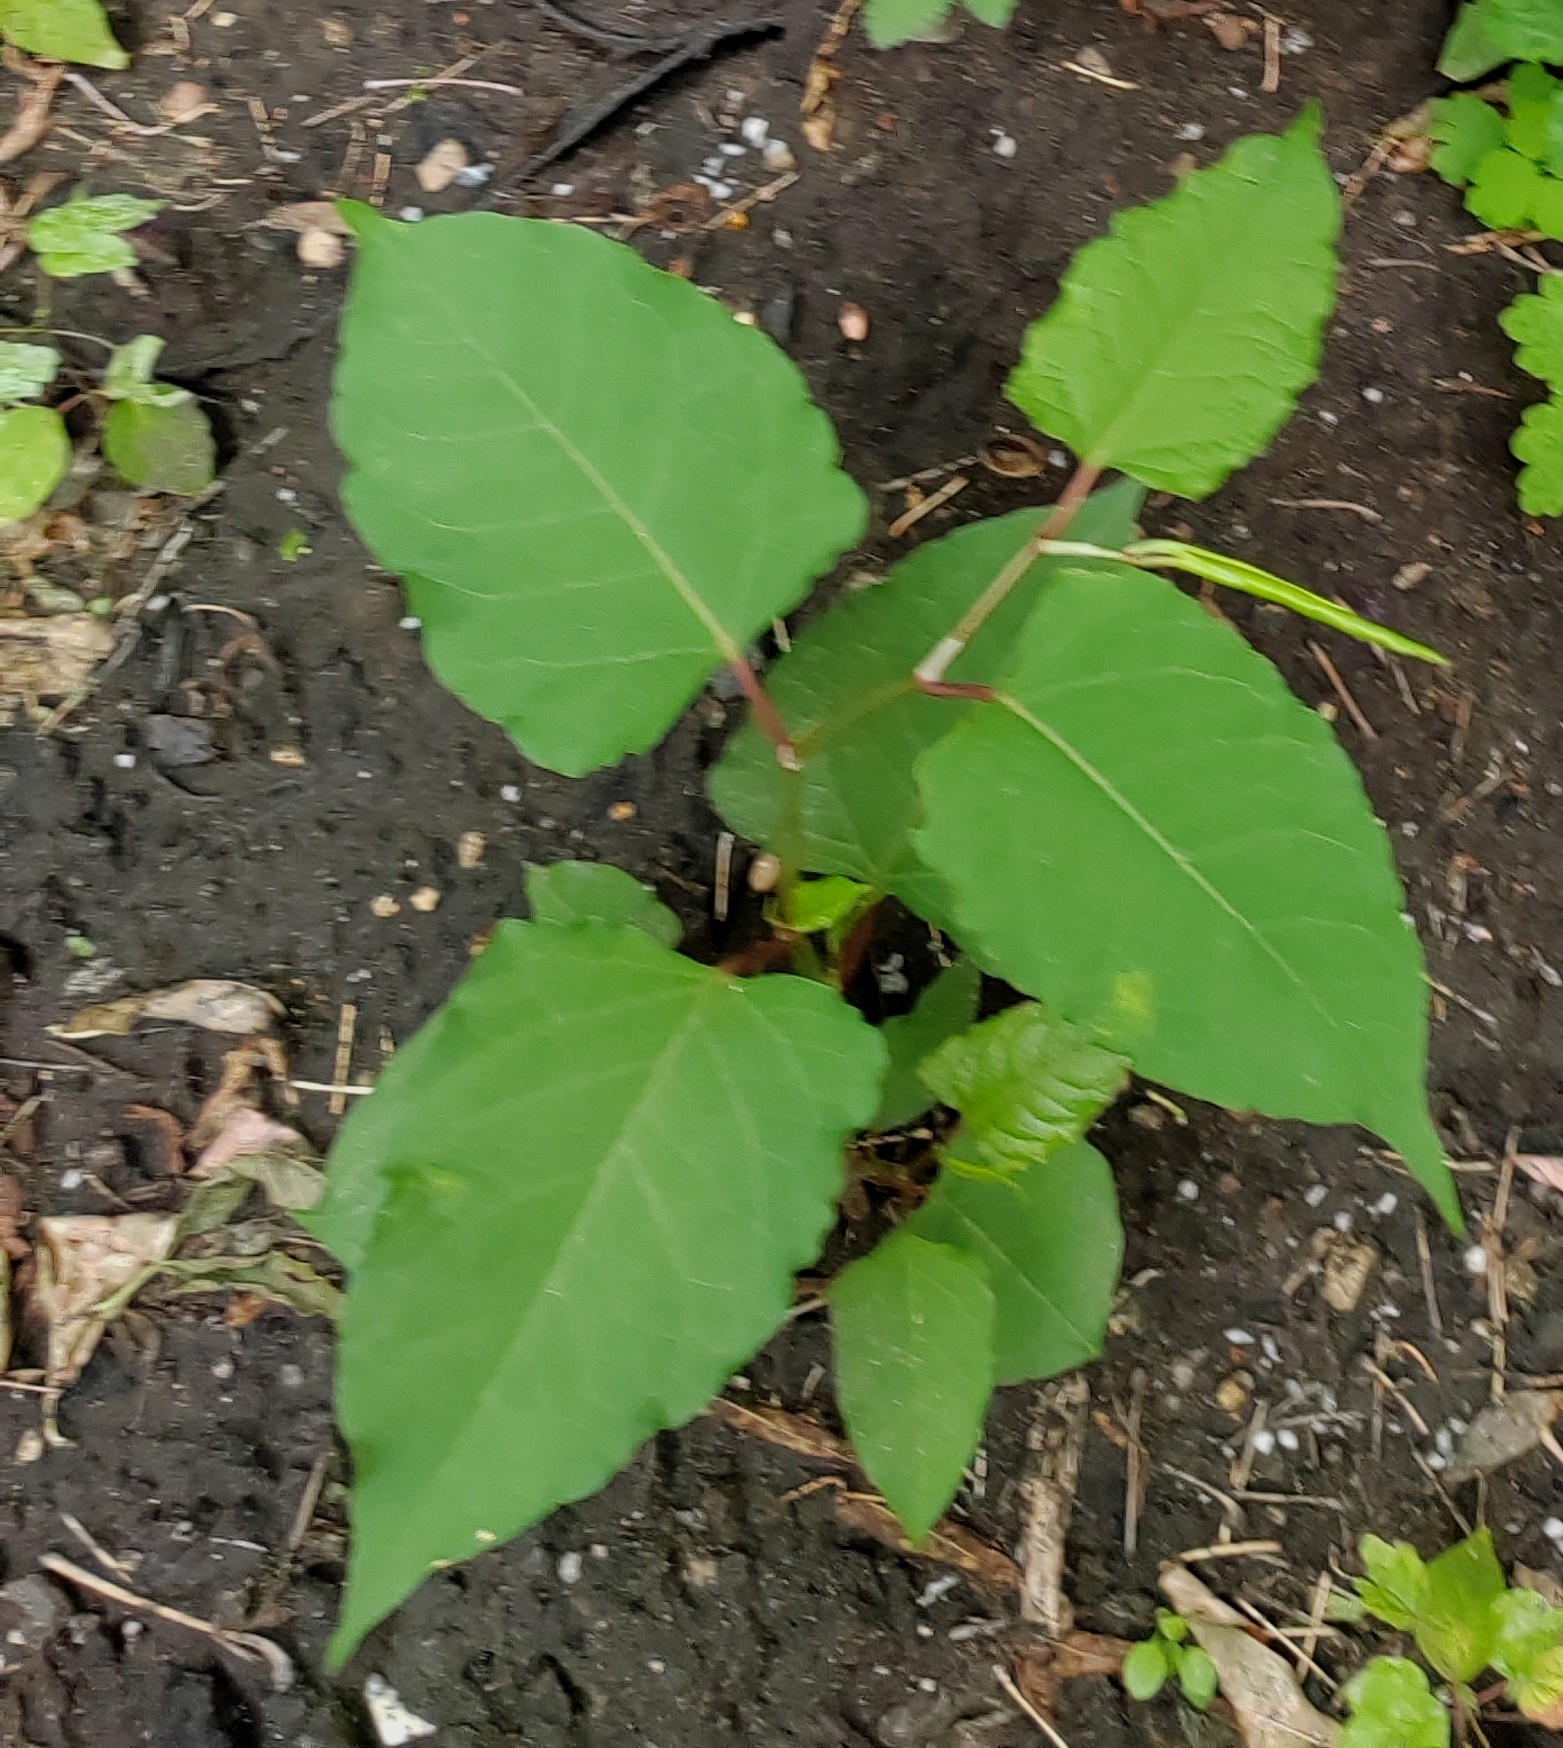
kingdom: Plantae
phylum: Tracheophyta
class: Magnoliopsida
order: Caryophyllales
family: Polygonaceae
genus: Reynoutria
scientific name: Reynoutria japonica
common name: Japanese knotweed
